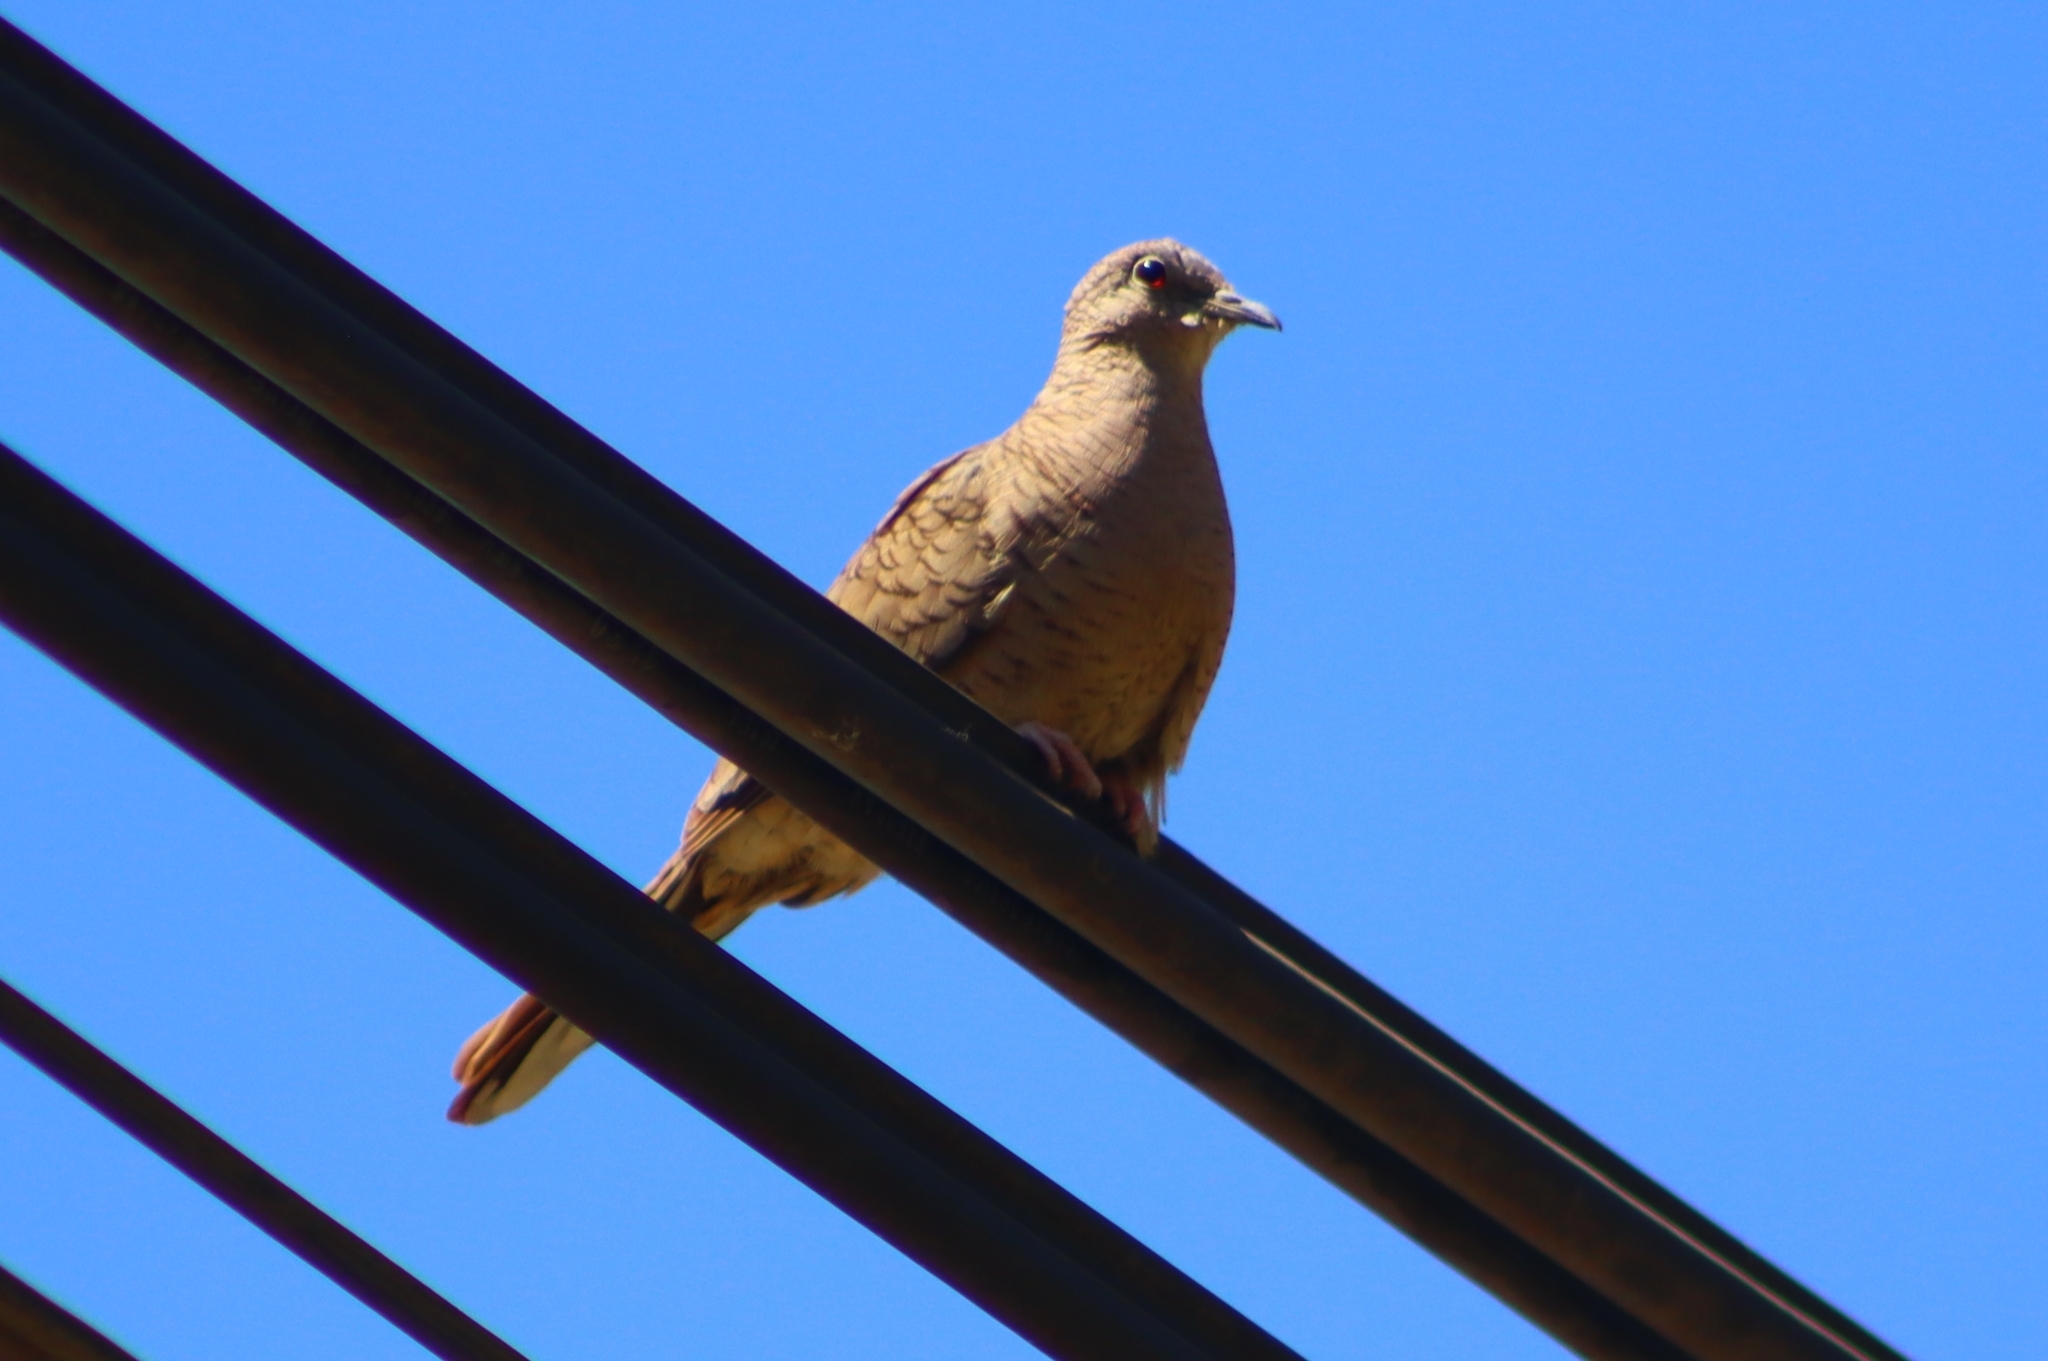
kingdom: Animalia
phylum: Chordata
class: Aves
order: Columbiformes
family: Columbidae
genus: Columbina
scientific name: Columbina inca
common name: Inca dove
